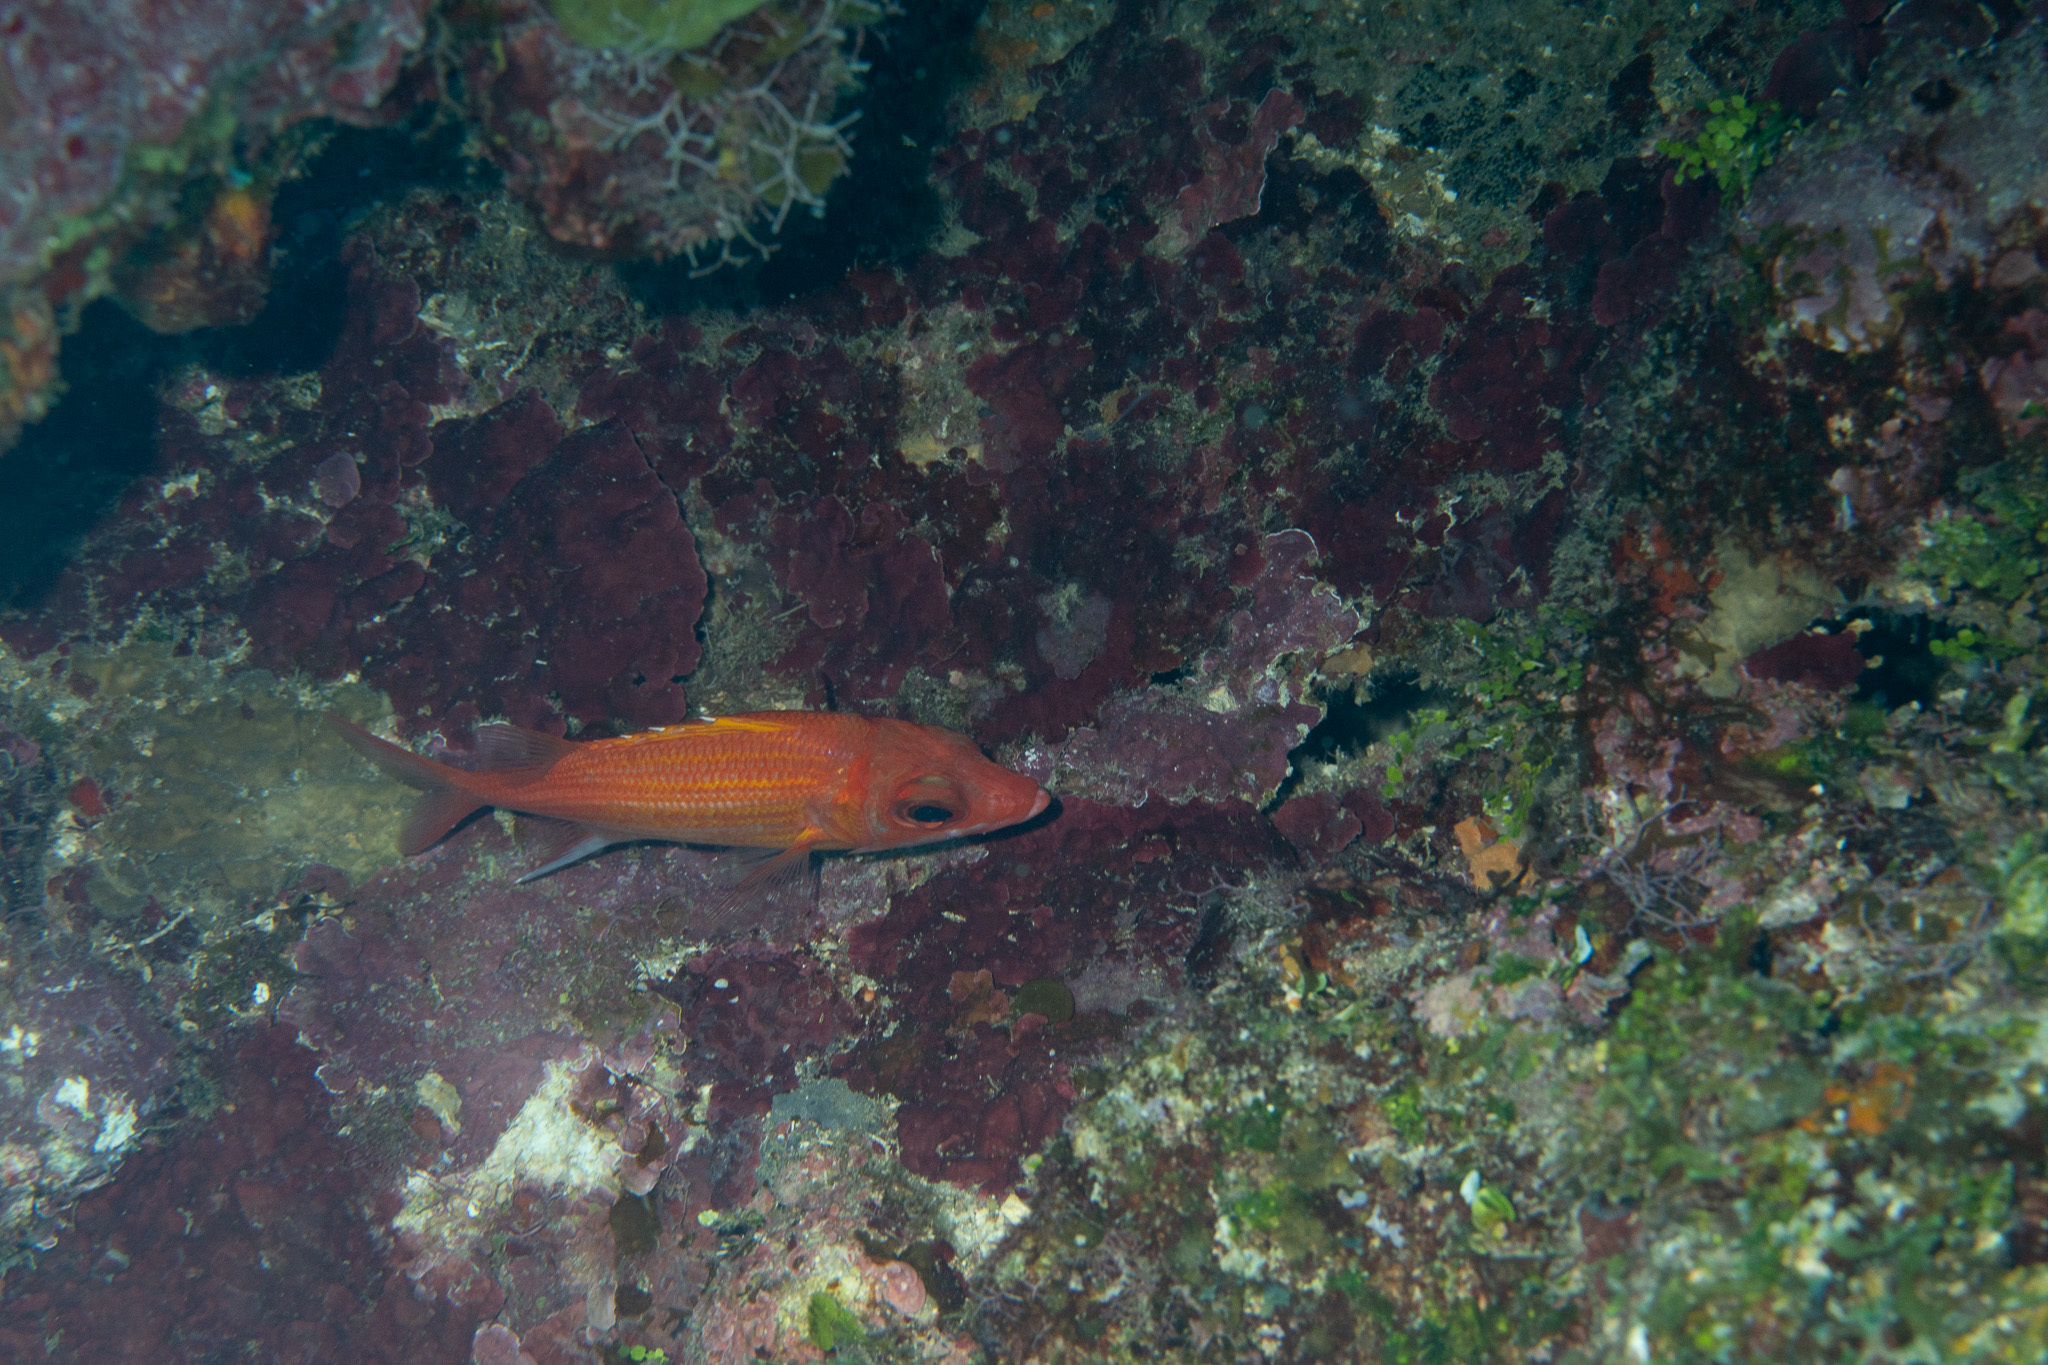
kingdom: Animalia
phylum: Chordata
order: Beryciformes
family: Holocentridae
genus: Neoniphon
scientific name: Neoniphon marianus
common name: Longjaw squirrelfish
